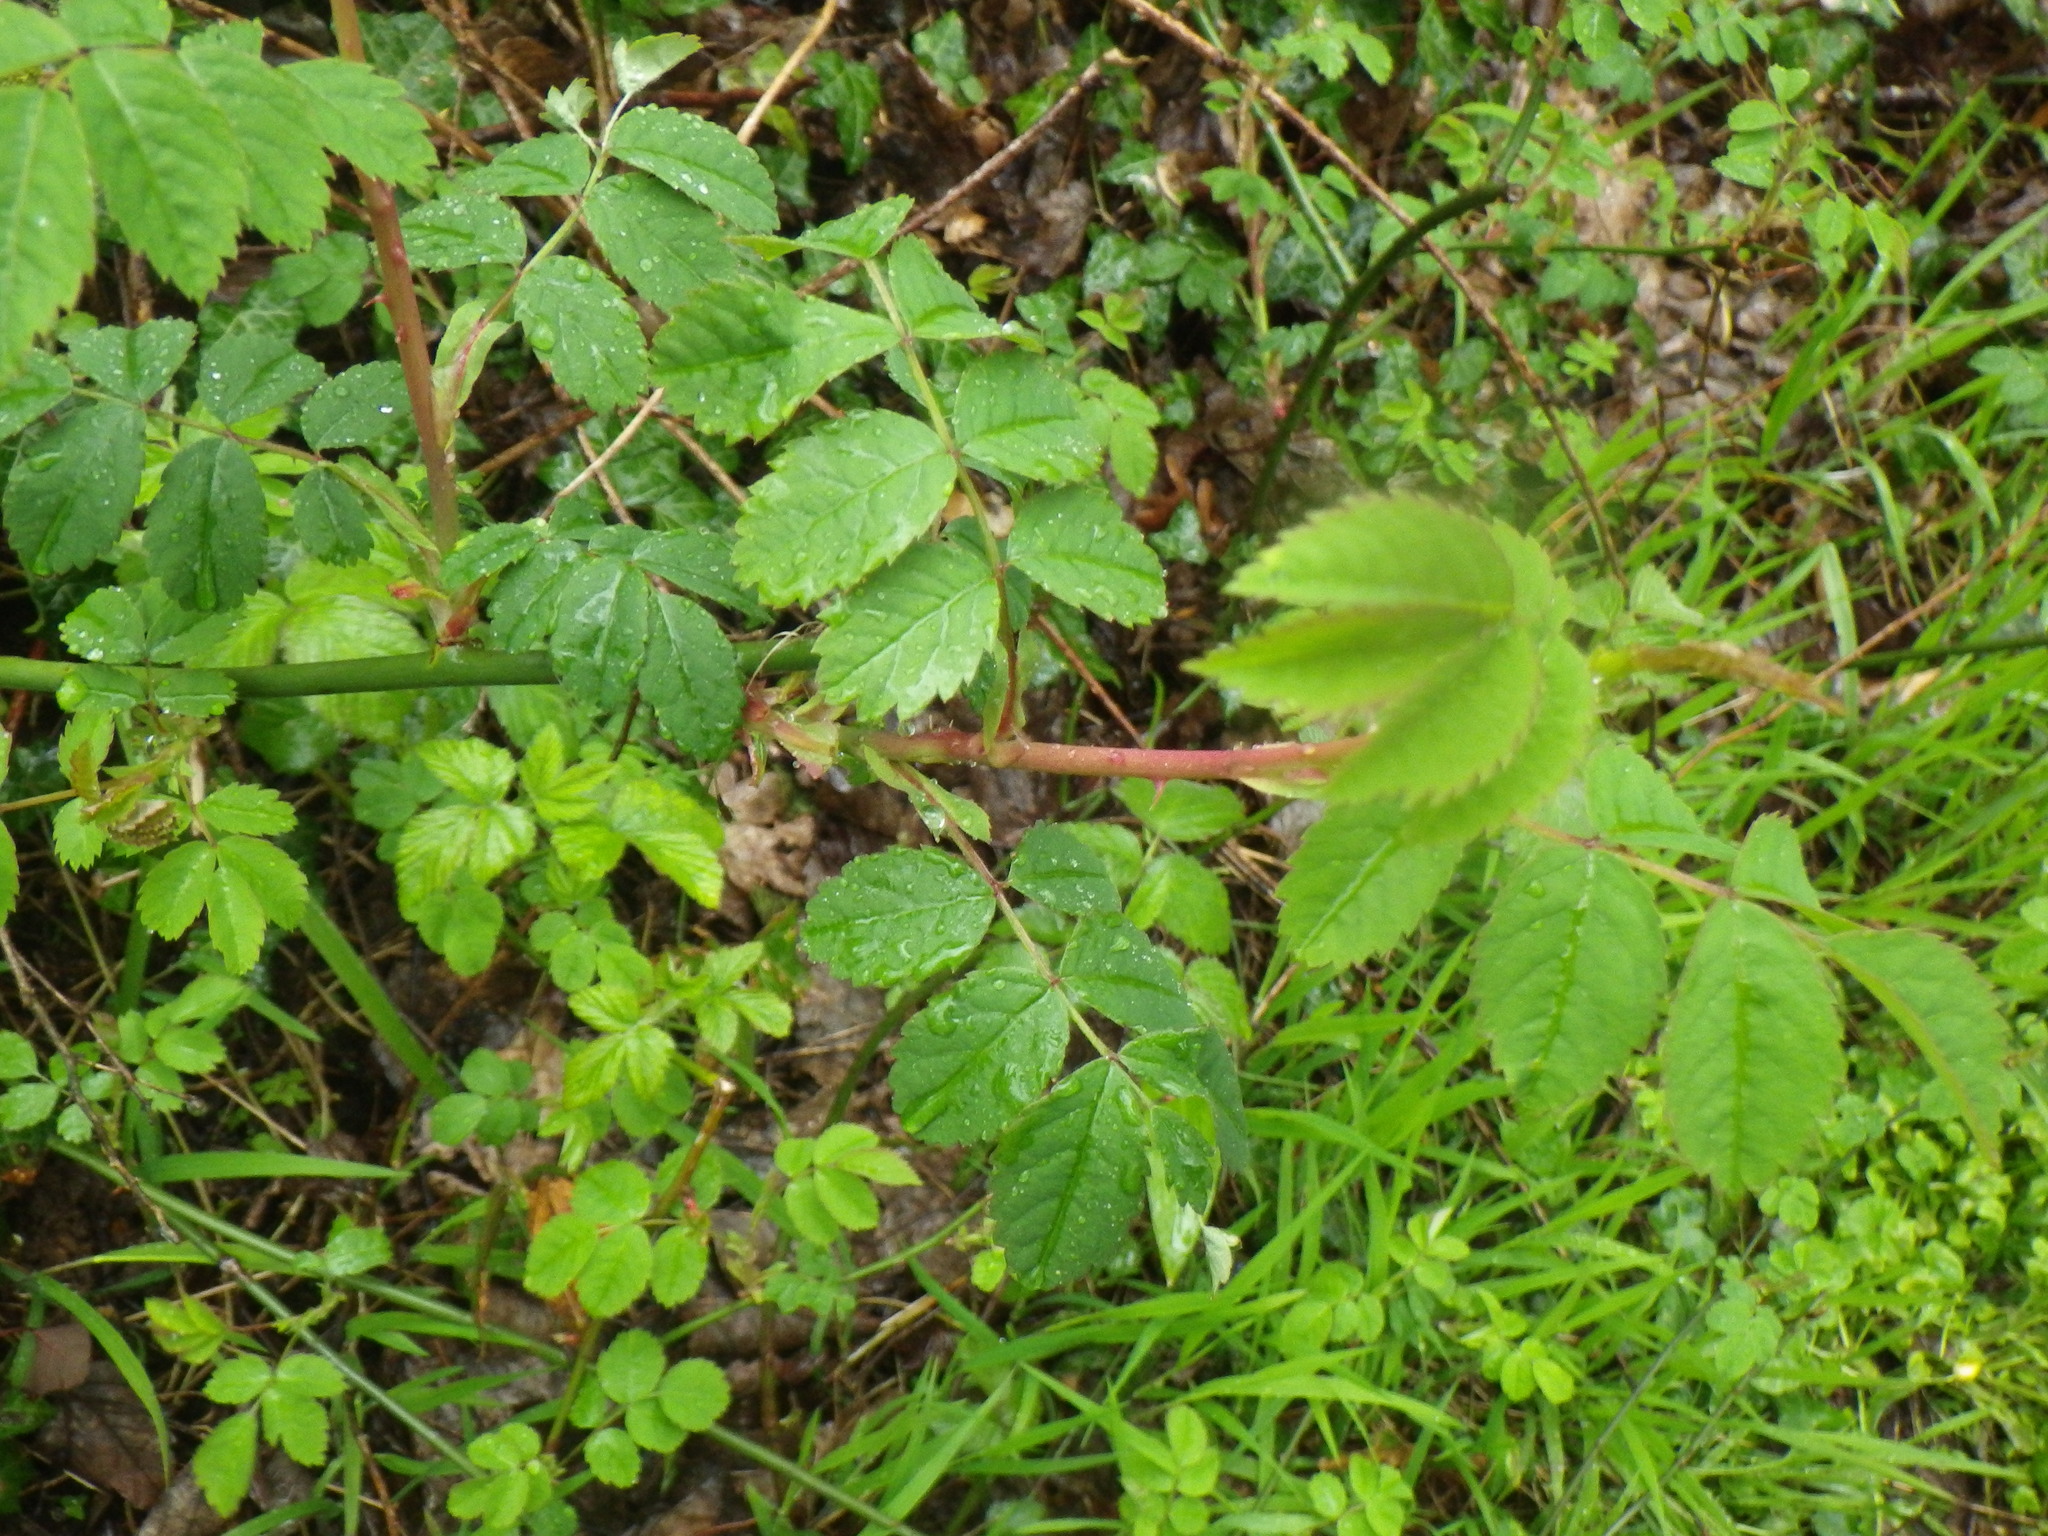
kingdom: Plantae
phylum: Tracheophyta
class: Magnoliopsida
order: Rosales
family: Rosaceae
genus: Sorbus
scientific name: Sorbus aucuparia
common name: Rowan
